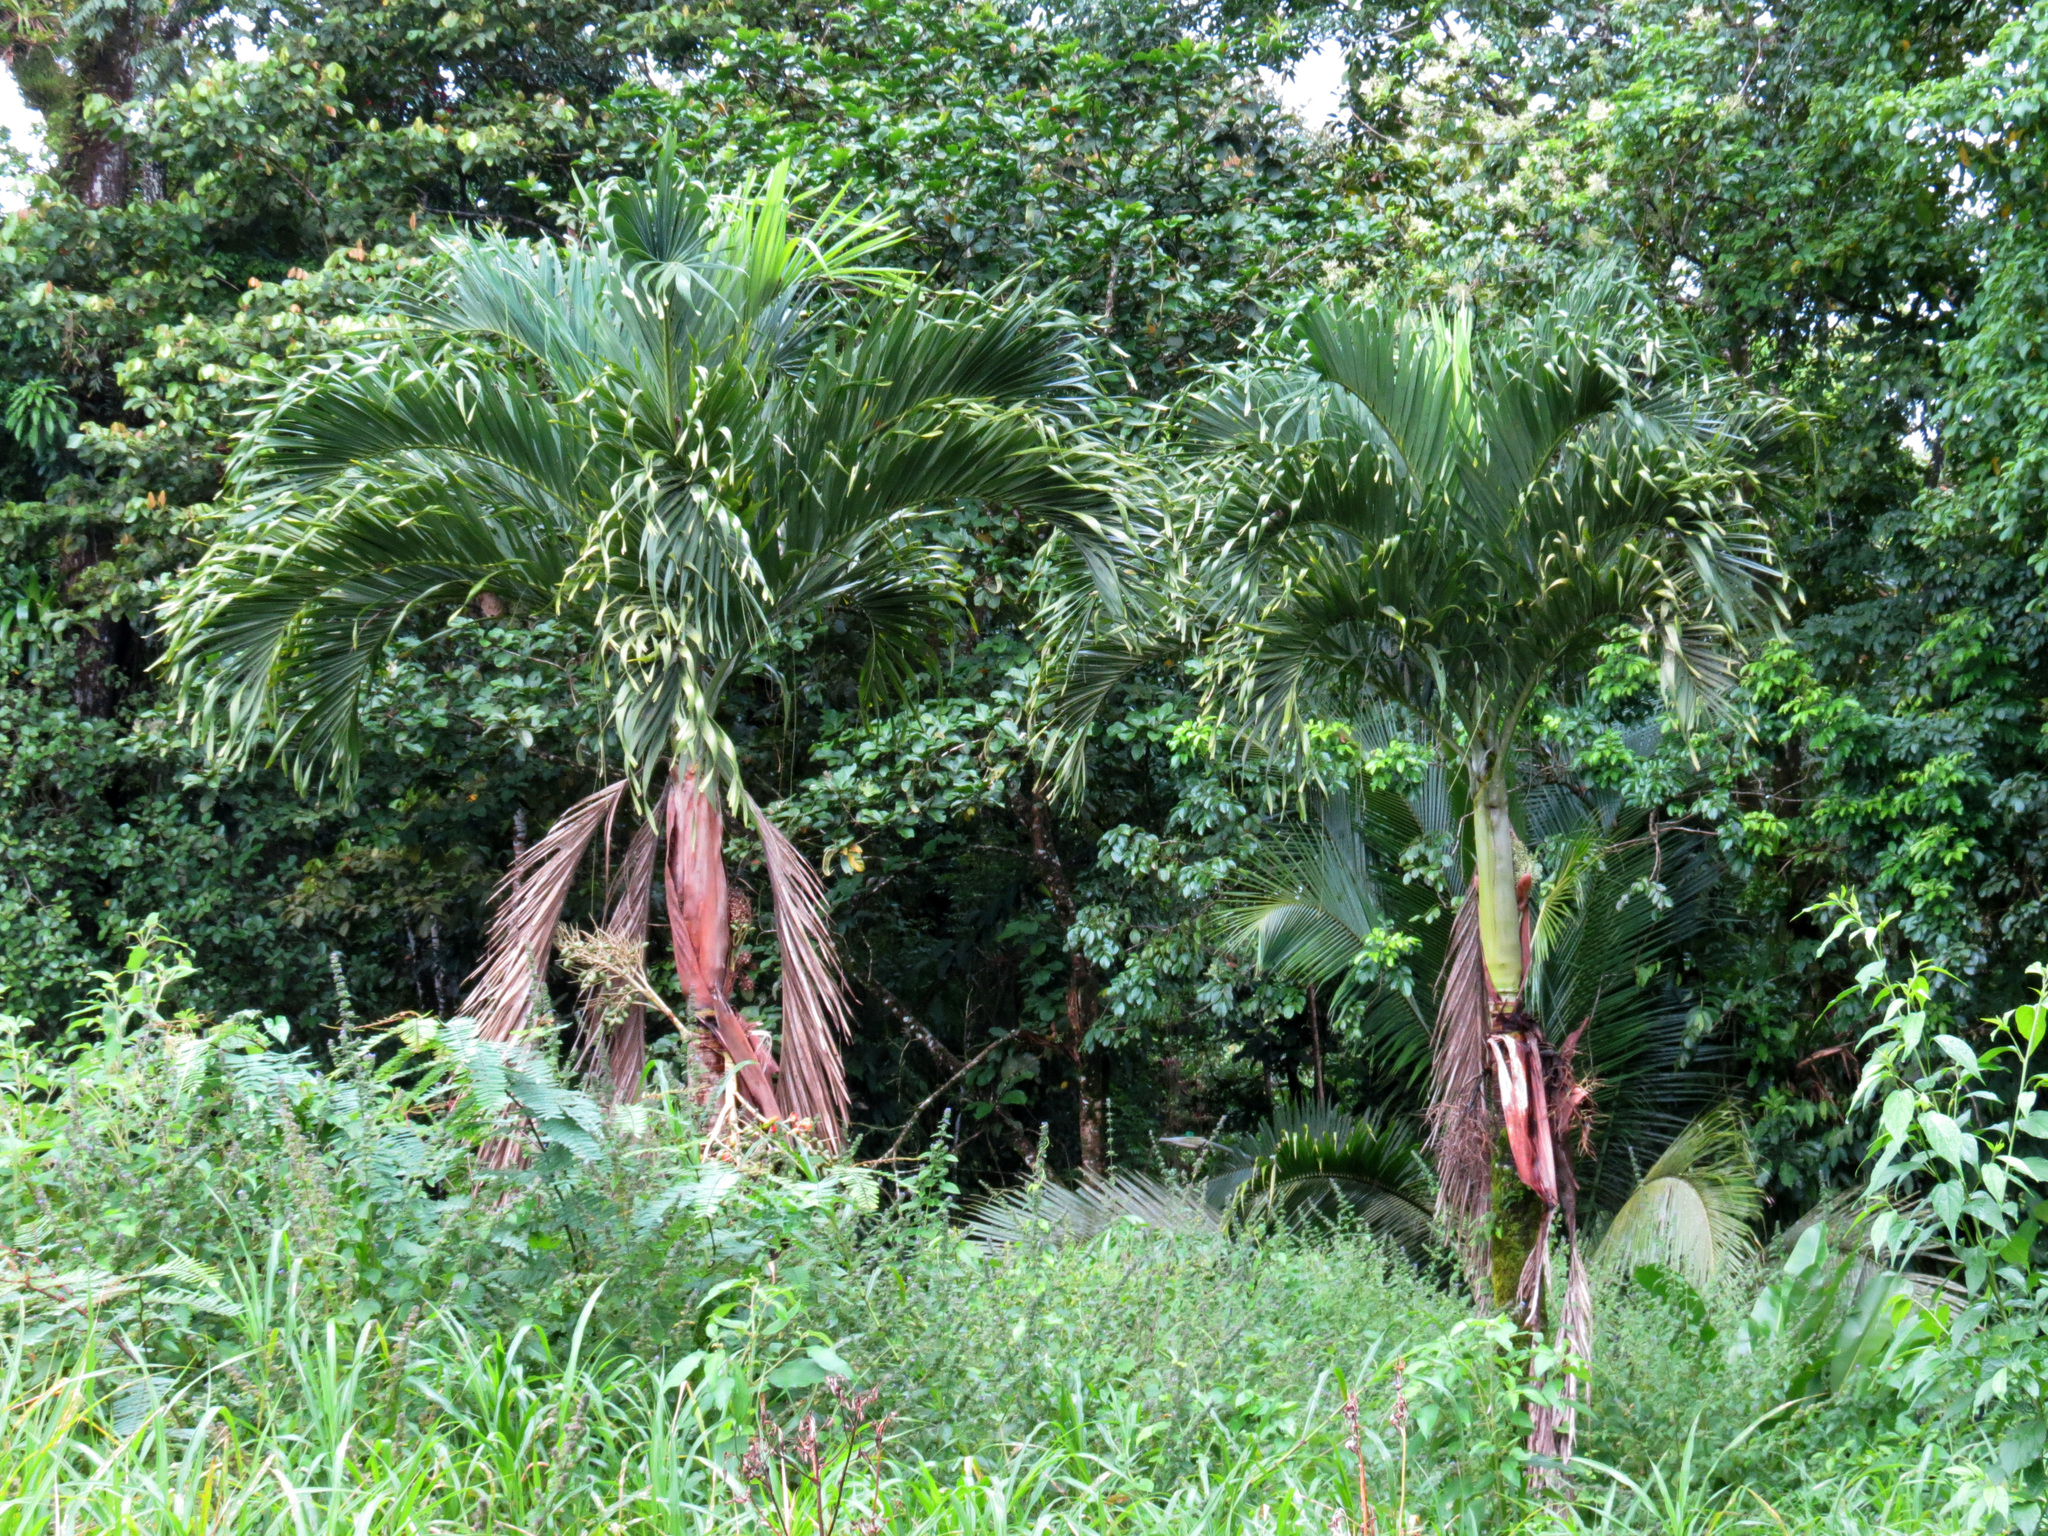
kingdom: Plantae
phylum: Tracheophyta
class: Liliopsida
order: Arecales
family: Arecaceae
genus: Adonidia
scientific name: Adonidia merrillii
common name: Manila palm
